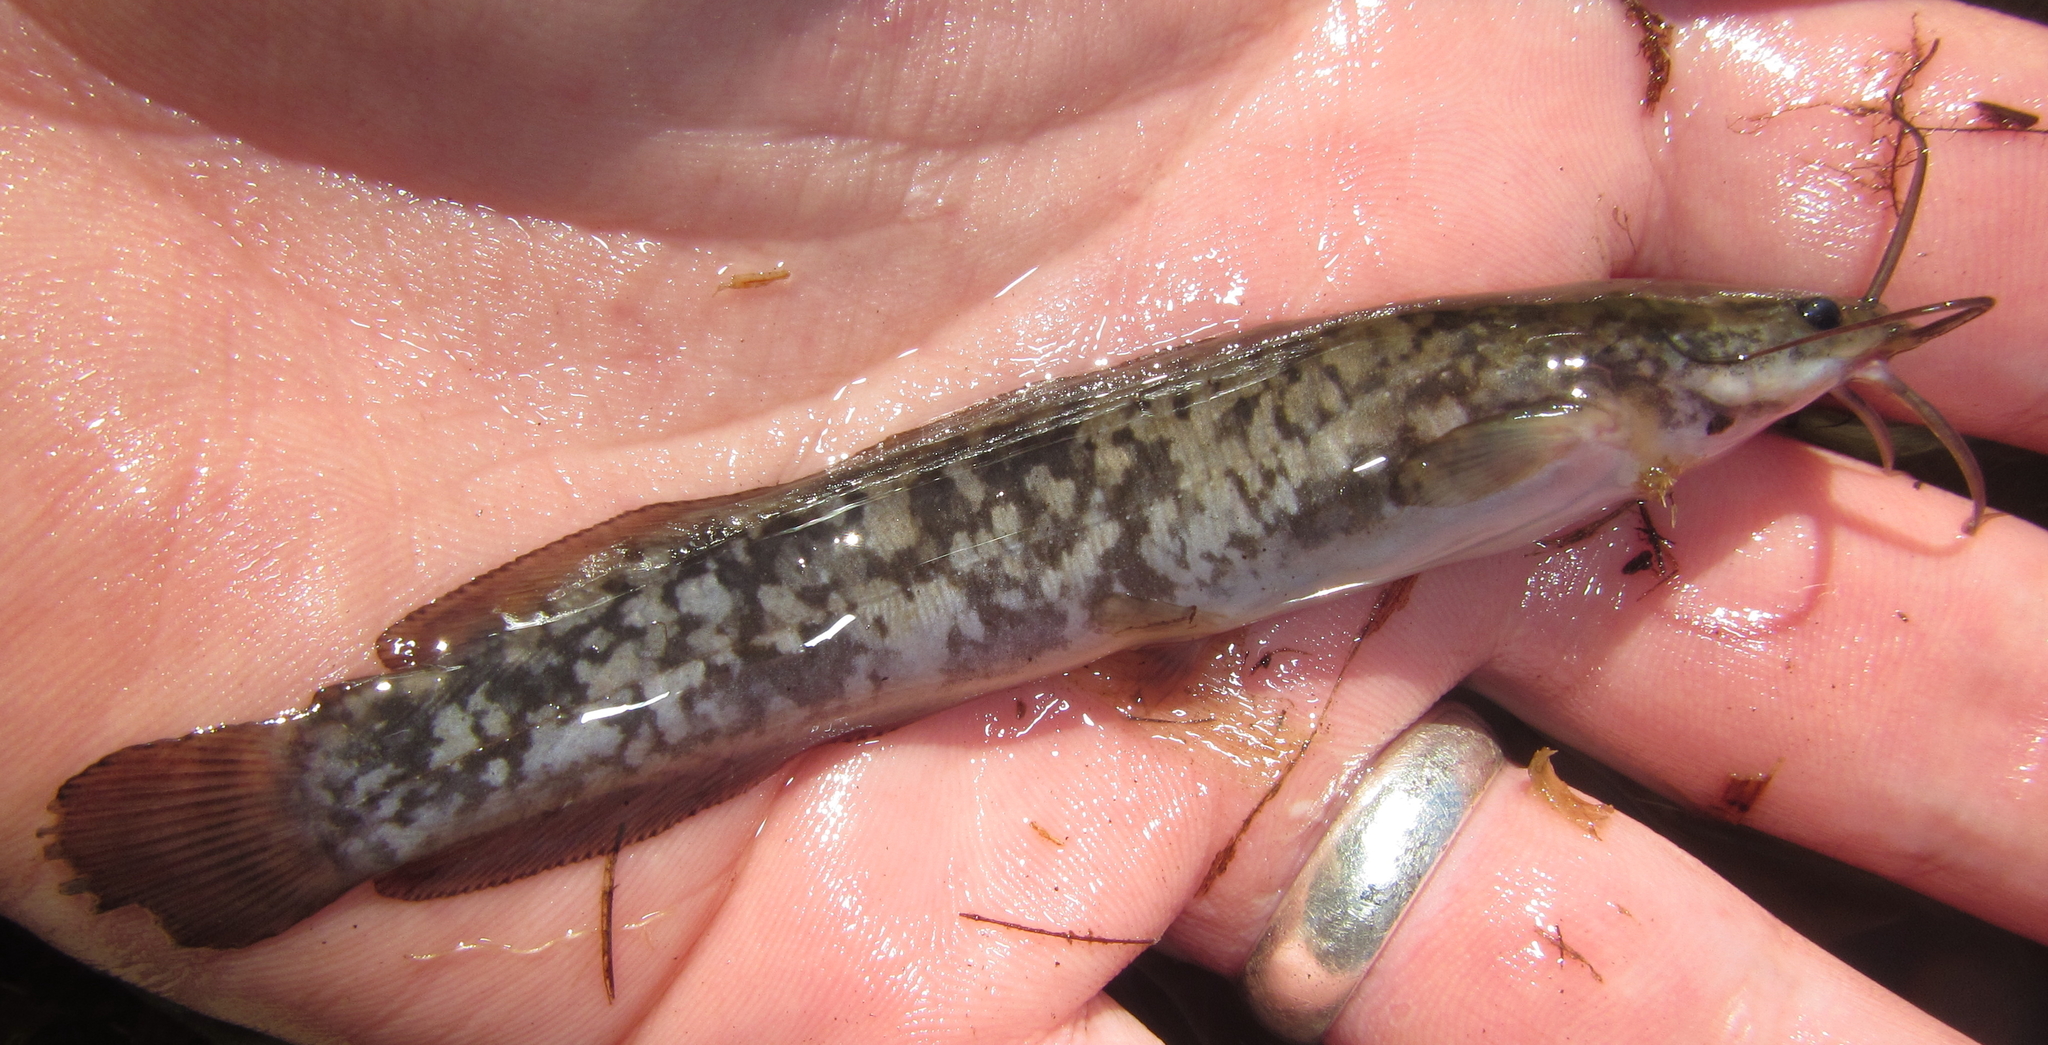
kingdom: Animalia
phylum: Chordata
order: Siluriformes
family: Clariidae
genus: Clarias
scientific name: Clarias ngamensis
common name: Blunt-toothed african catfish
